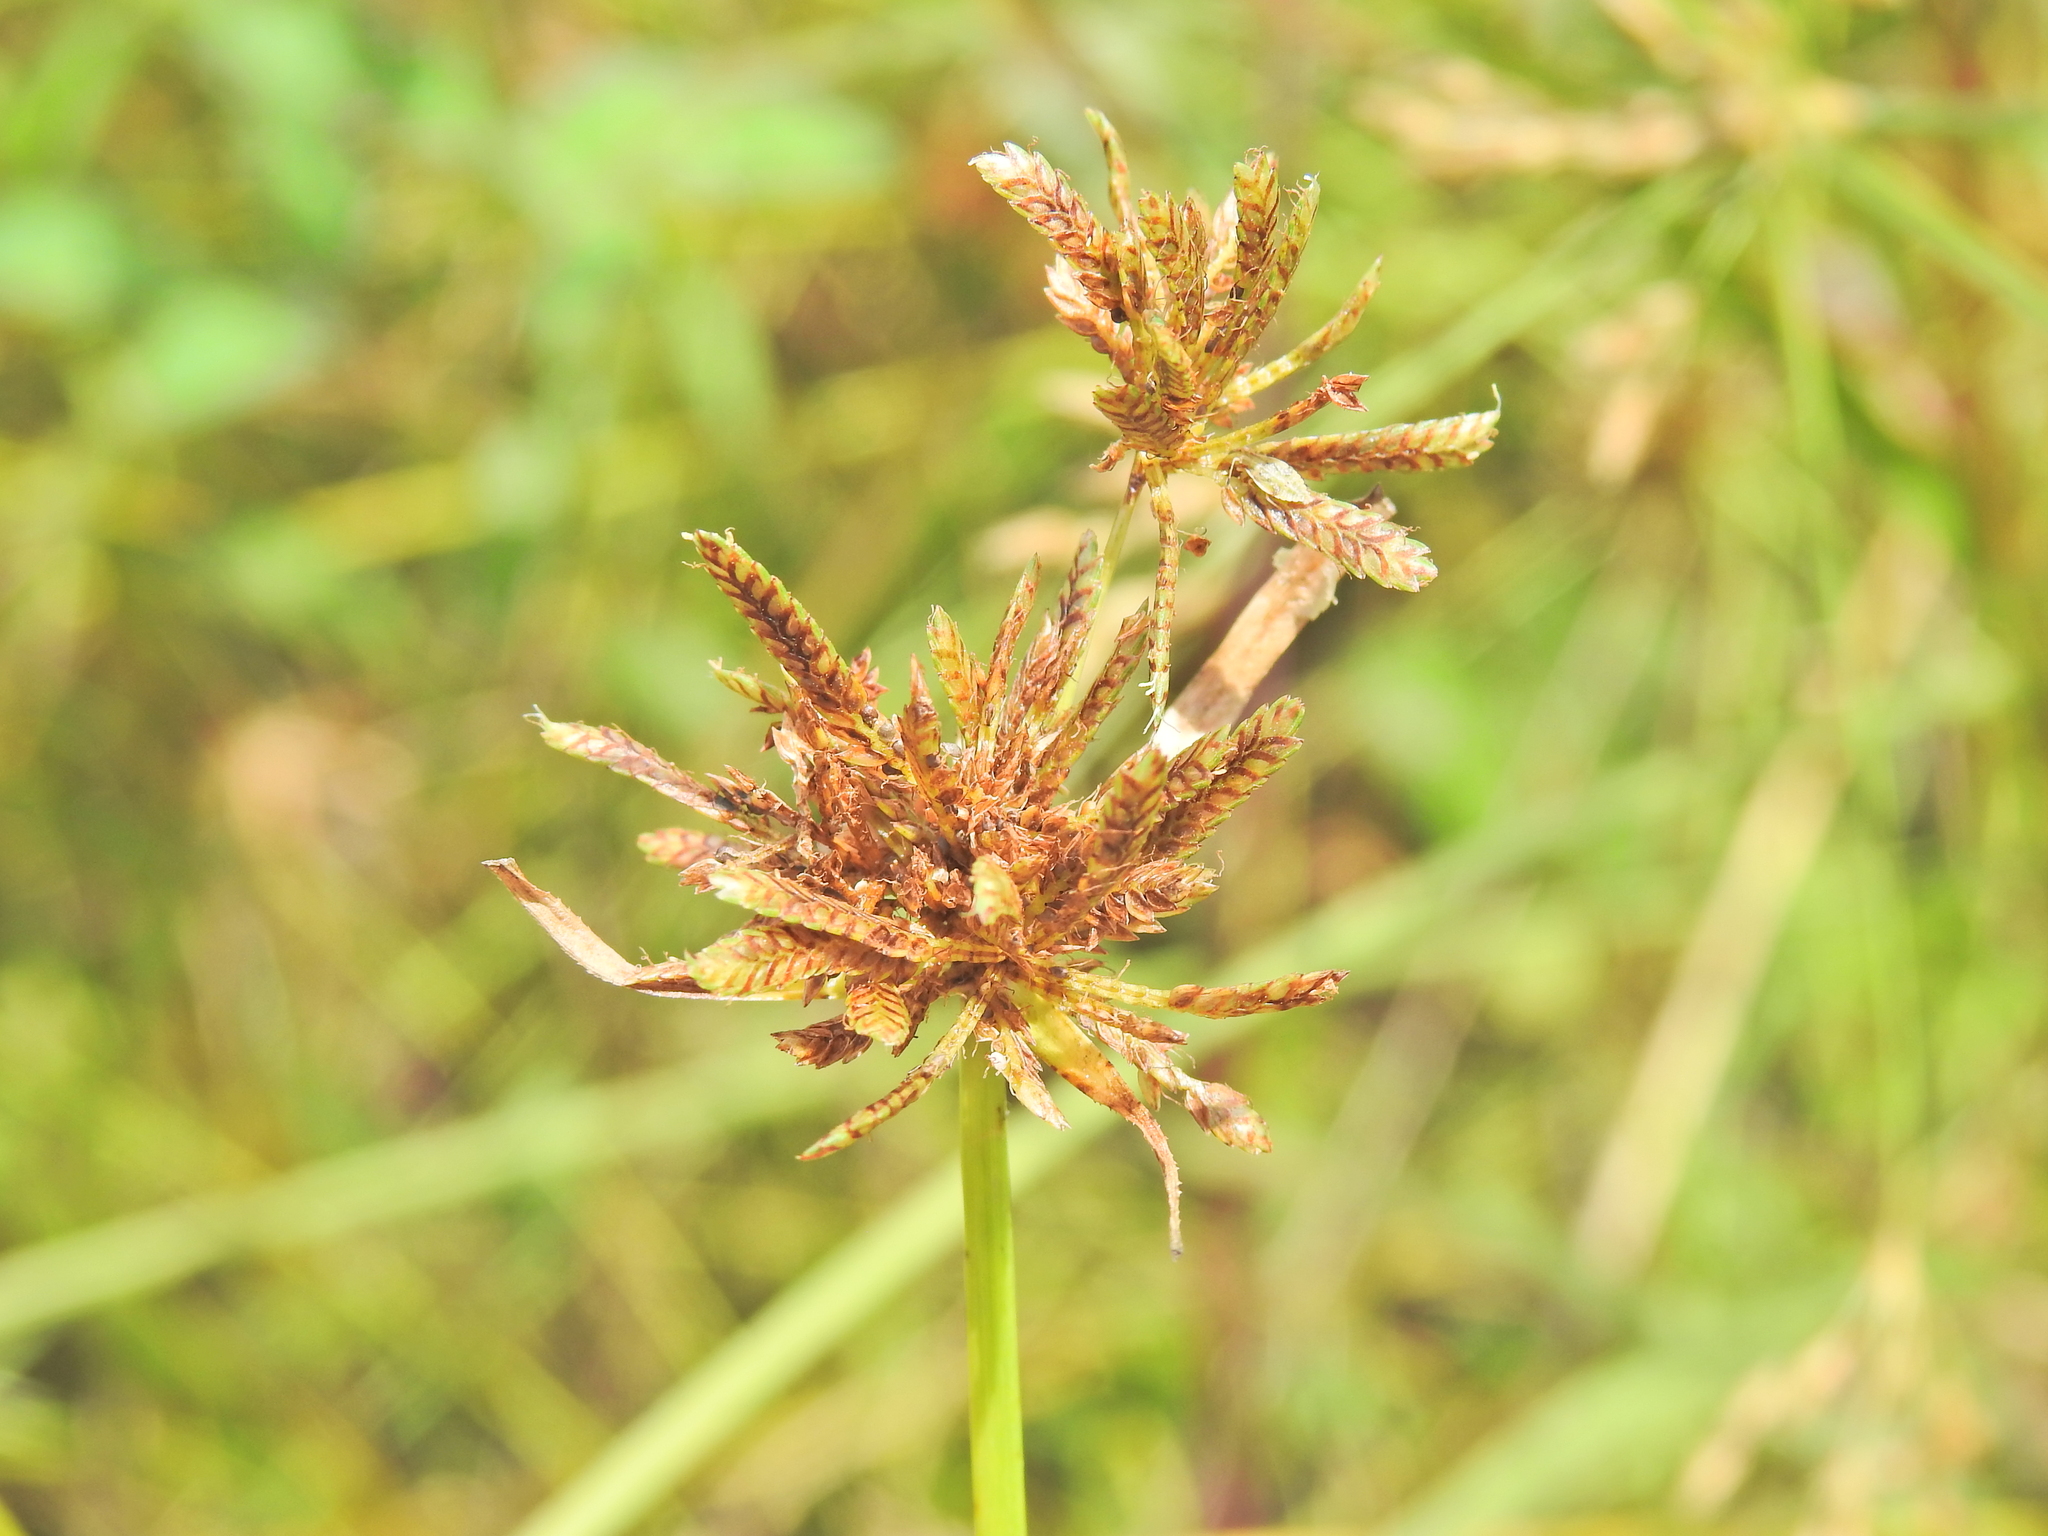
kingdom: Plantae
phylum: Tracheophyta
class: Liliopsida
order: Poales
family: Cyperaceae
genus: Cyperus
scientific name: Cyperus sanguinolentus
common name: Purpleglume flatsedge
